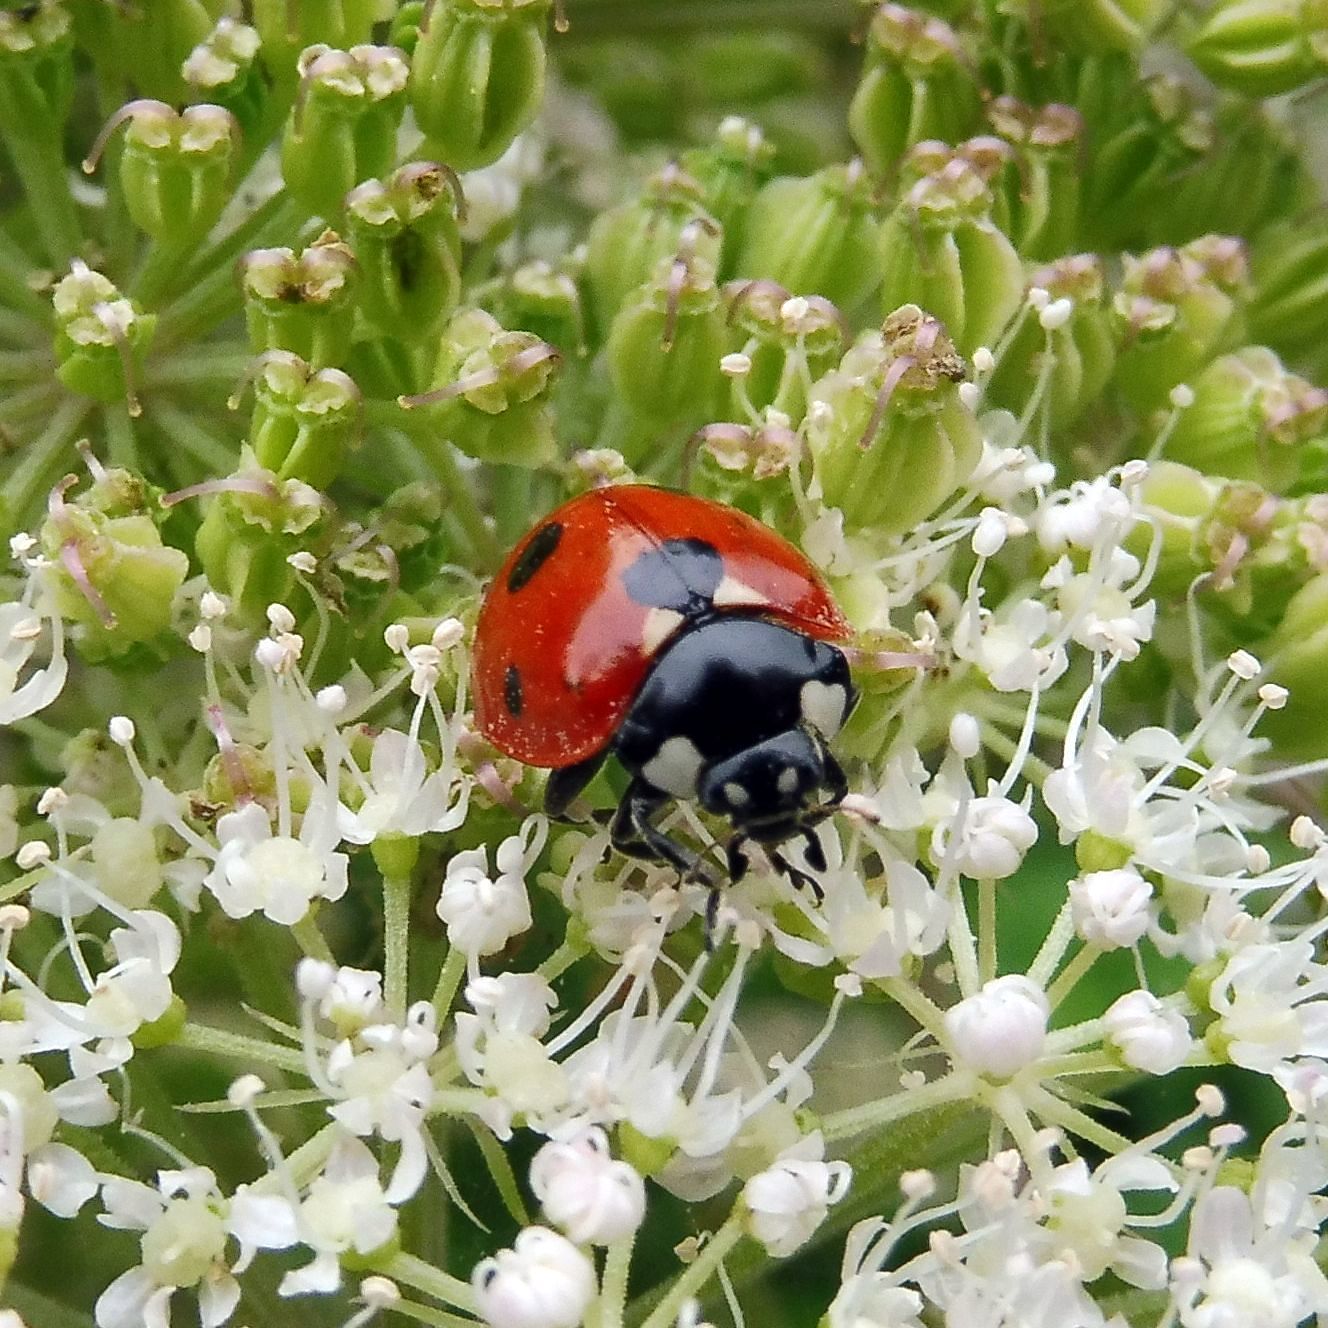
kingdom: Animalia
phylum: Arthropoda
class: Insecta
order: Coleoptera
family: Coccinellidae
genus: Coccinella
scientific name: Coccinella septempunctata
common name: Sevenspotted lady beetle
